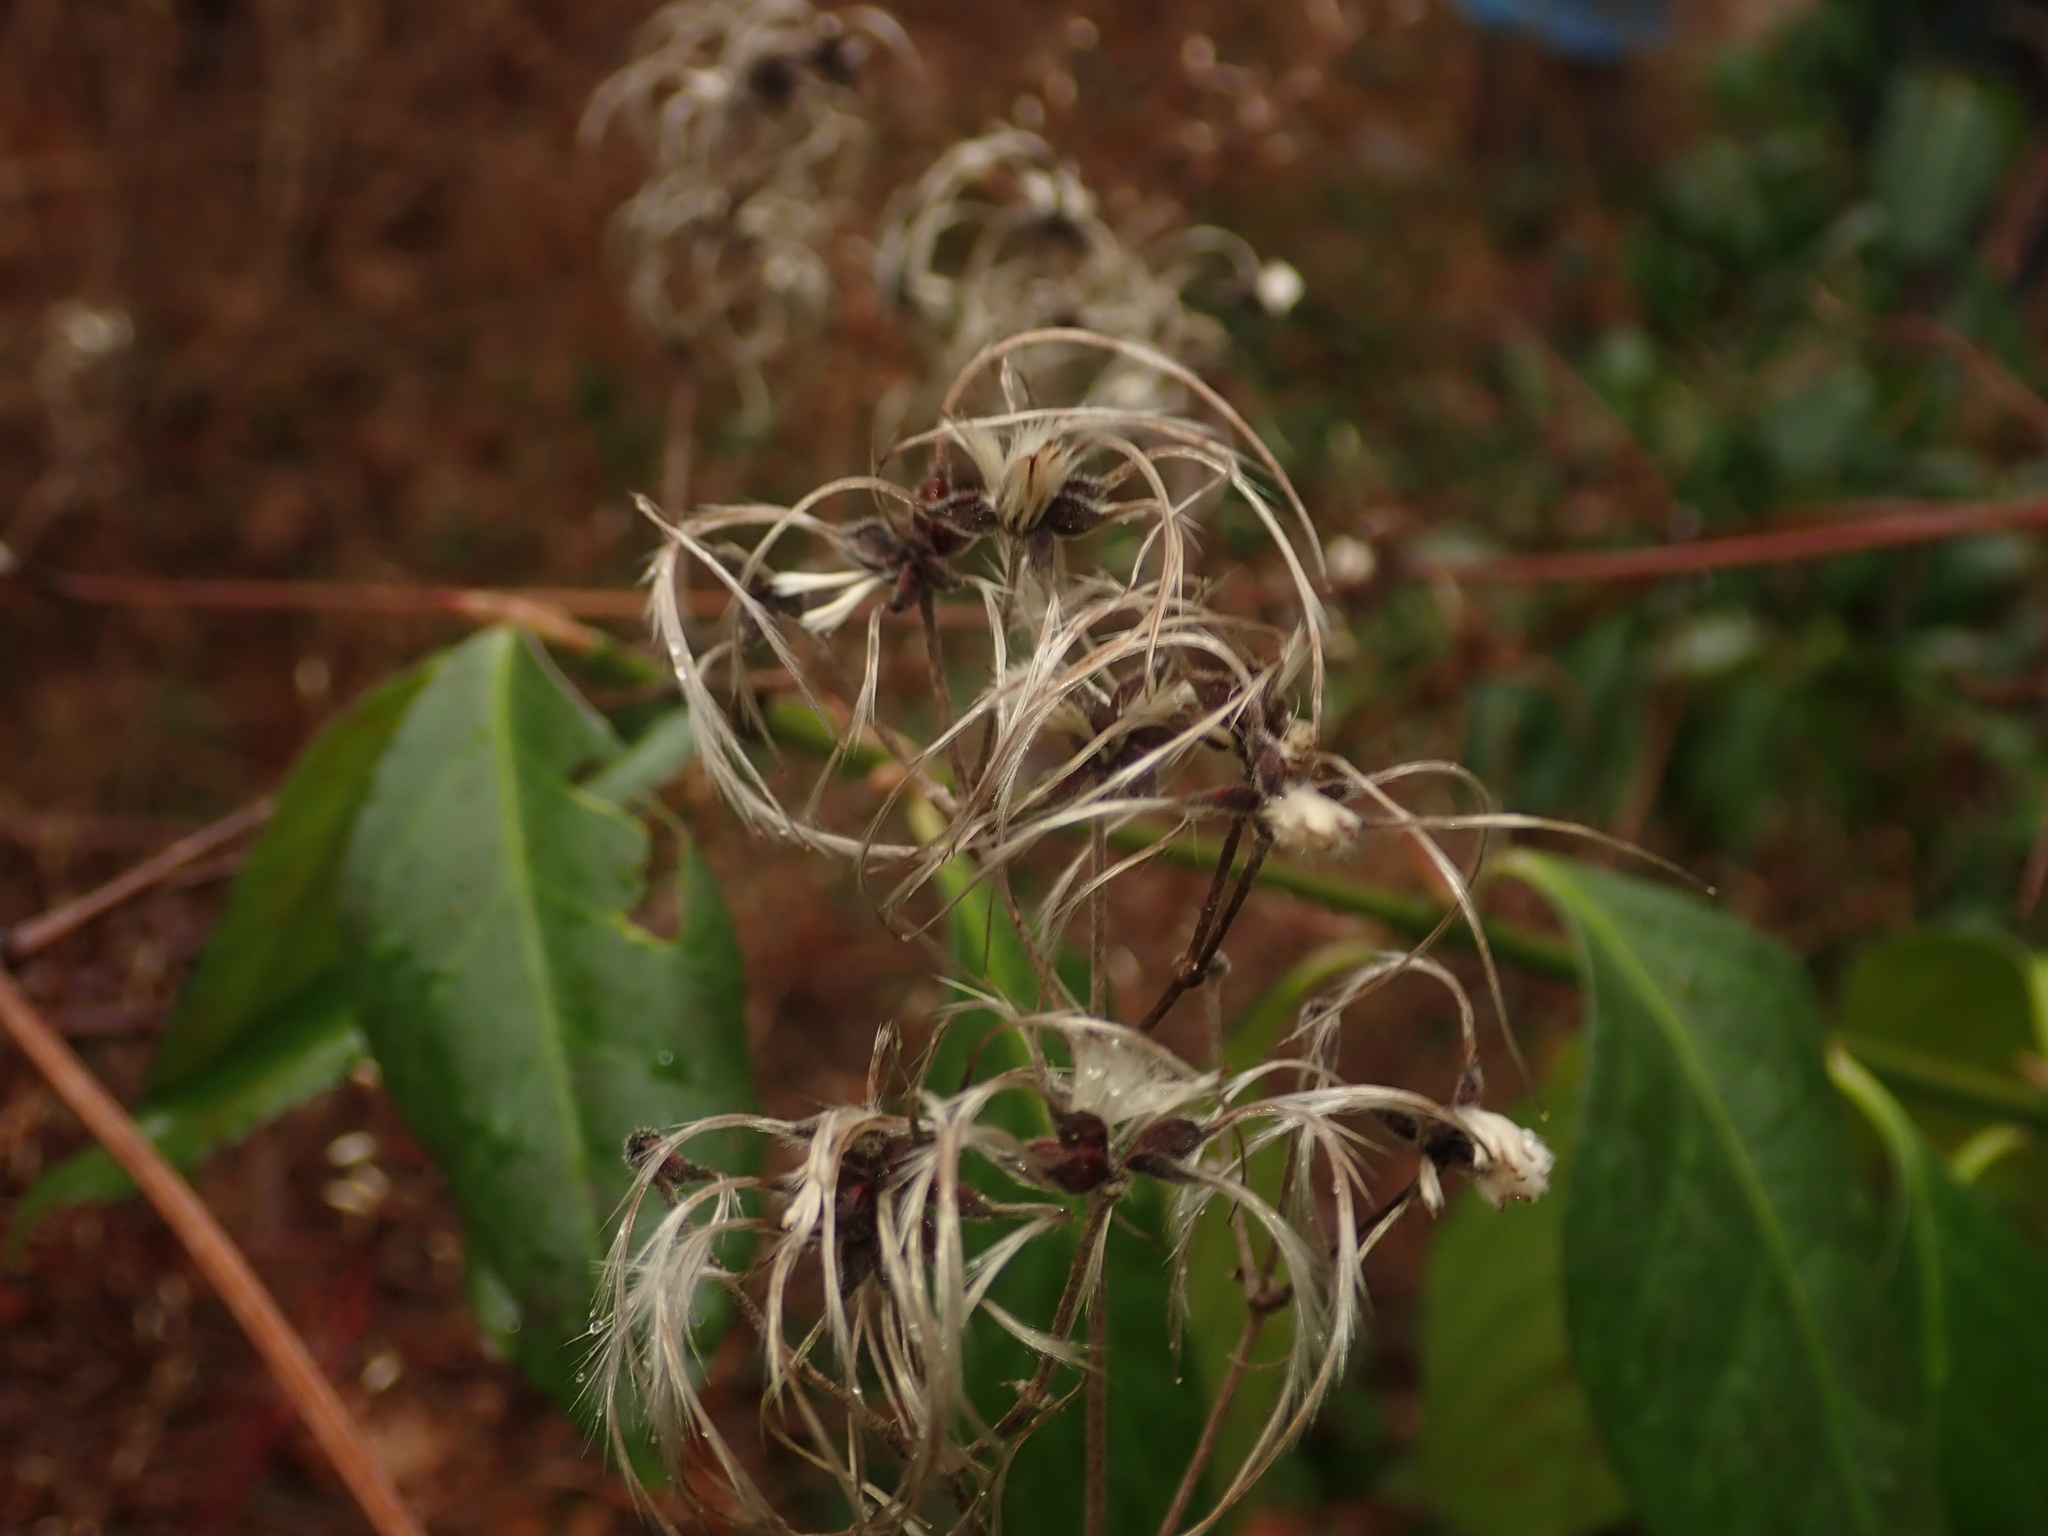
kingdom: Plantae
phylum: Tracheophyta
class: Magnoliopsida
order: Ranunculales
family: Ranunculaceae
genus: Clematis
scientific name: Clematis vitalba
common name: Evergreen clematis
